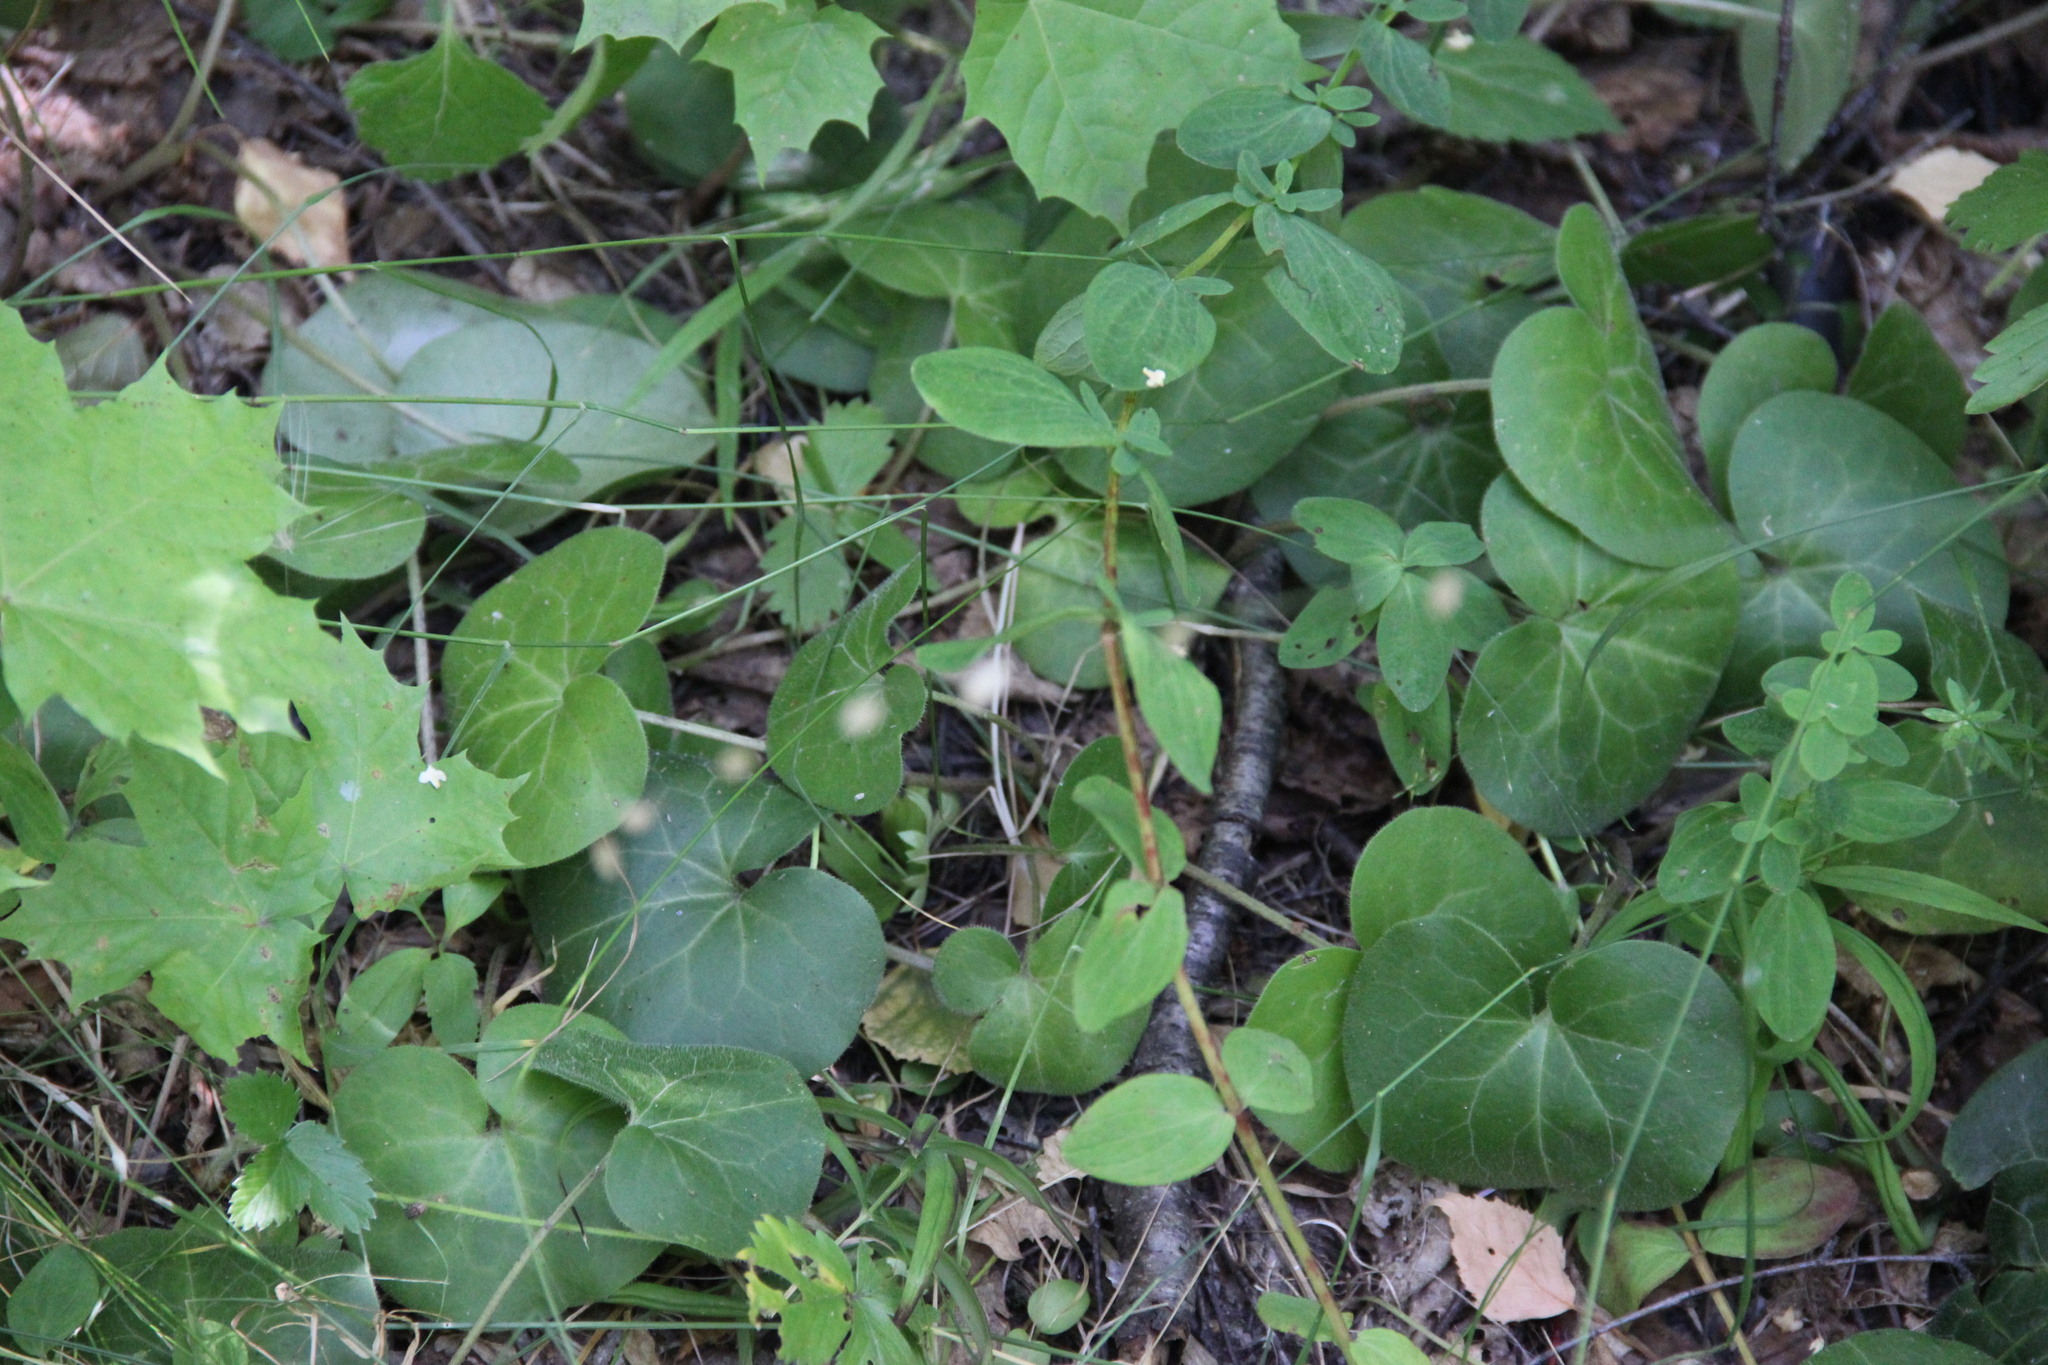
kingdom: Plantae
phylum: Tracheophyta
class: Magnoliopsida
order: Piperales
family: Aristolochiaceae
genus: Asarum
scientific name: Asarum europaeum
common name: Asarabacca
